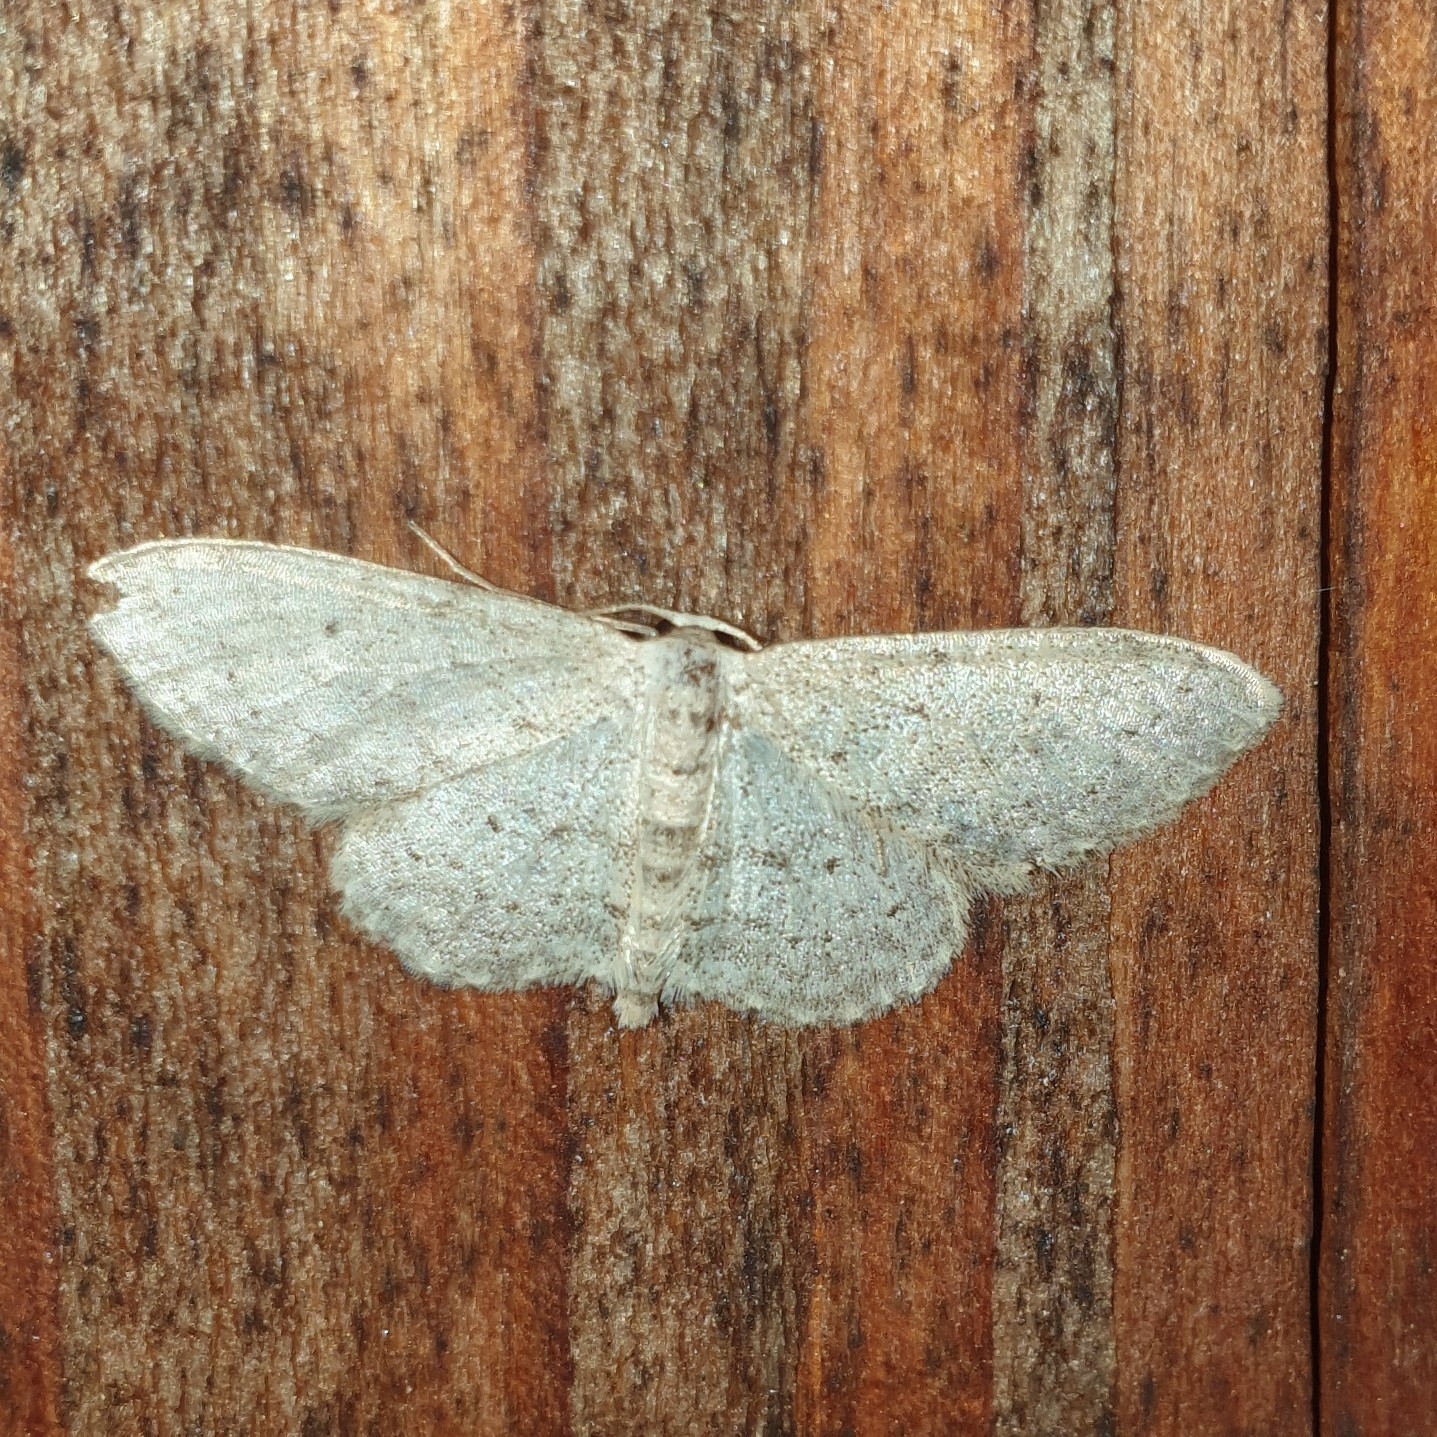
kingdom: Animalia
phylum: Arthropoda
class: Insecta
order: Lepidoptera
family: Geometridae
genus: Idaea
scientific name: Idaea seriata
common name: Small dusty wave
